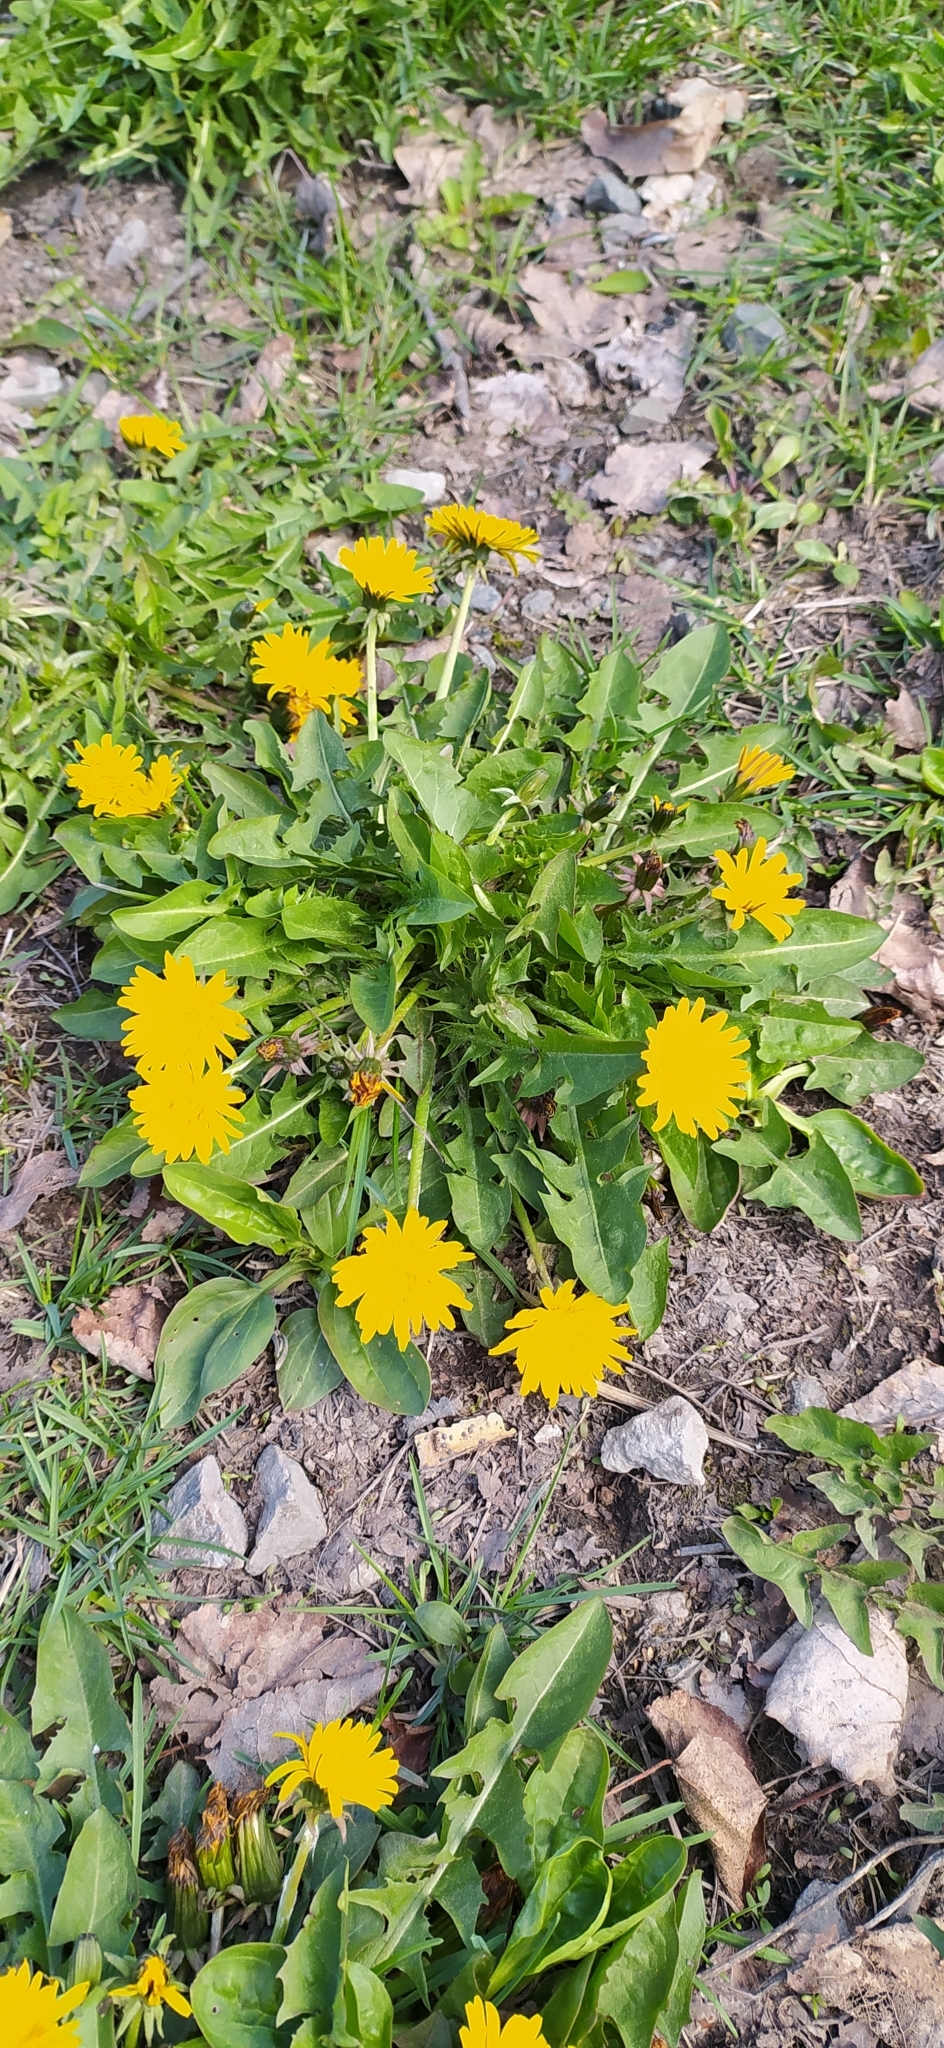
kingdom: Plantae
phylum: Tracheophyta
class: Magnoliopsida
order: Asterales
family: Asteraceae
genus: Taraxacum
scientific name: Taraxacum officinale
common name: Common dandelion
